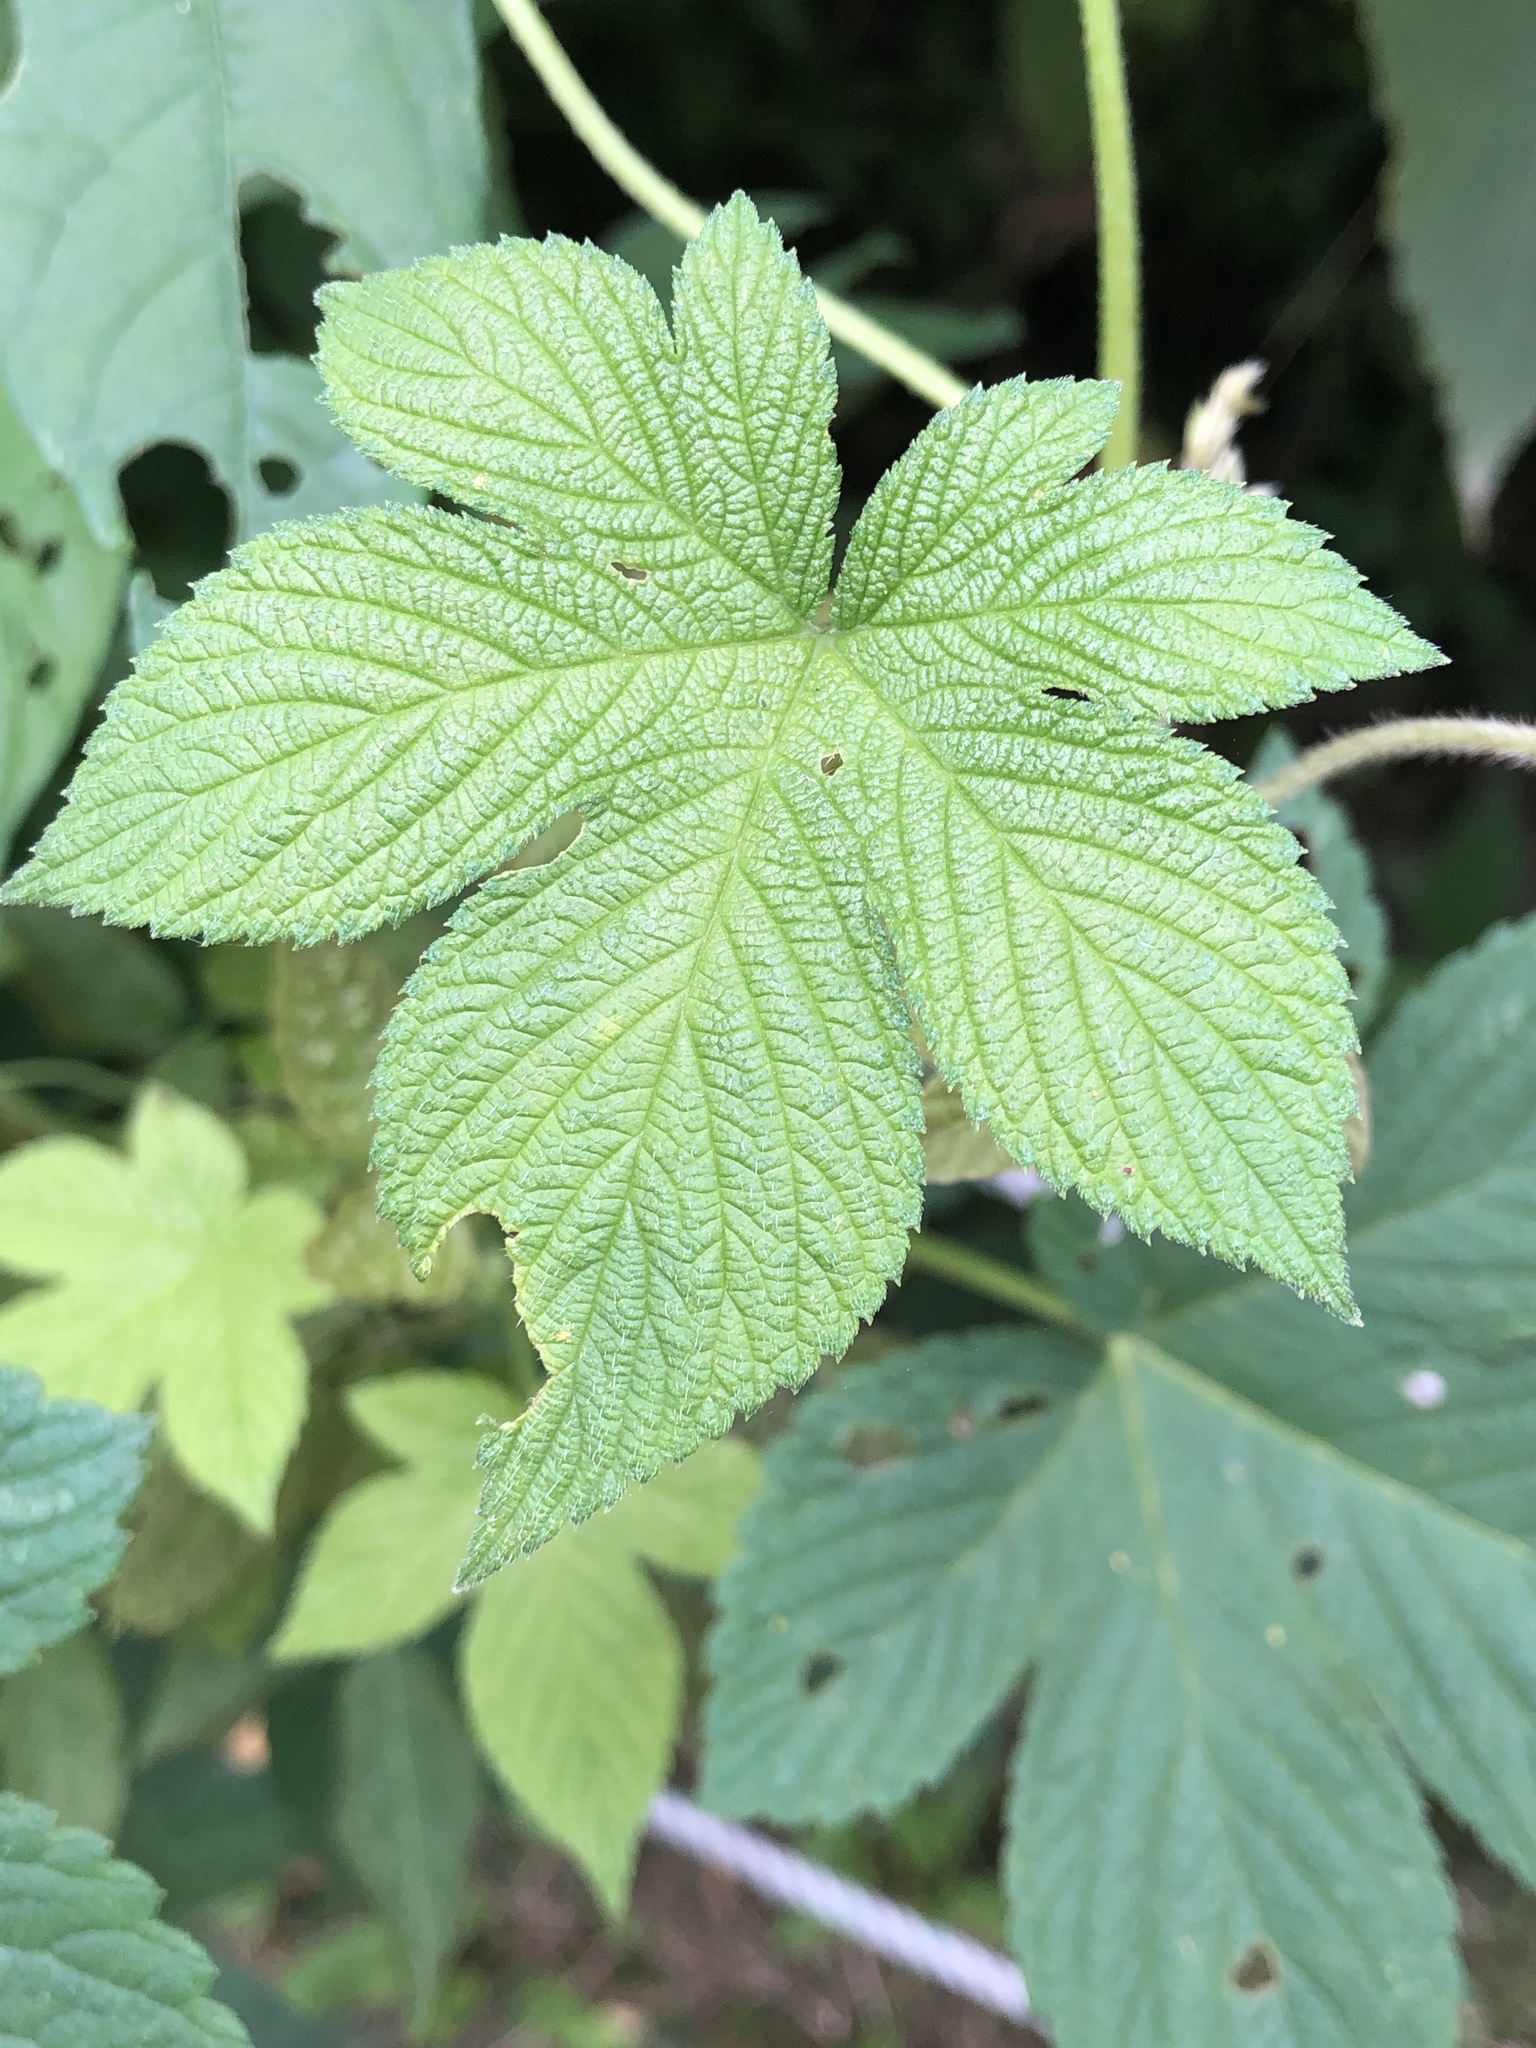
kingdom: Plantae
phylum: Tracheophyta
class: Magnoliopsida
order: Rosales
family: Cannabaceae
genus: Humulus
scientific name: Humulus scandens
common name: Japanese hop
